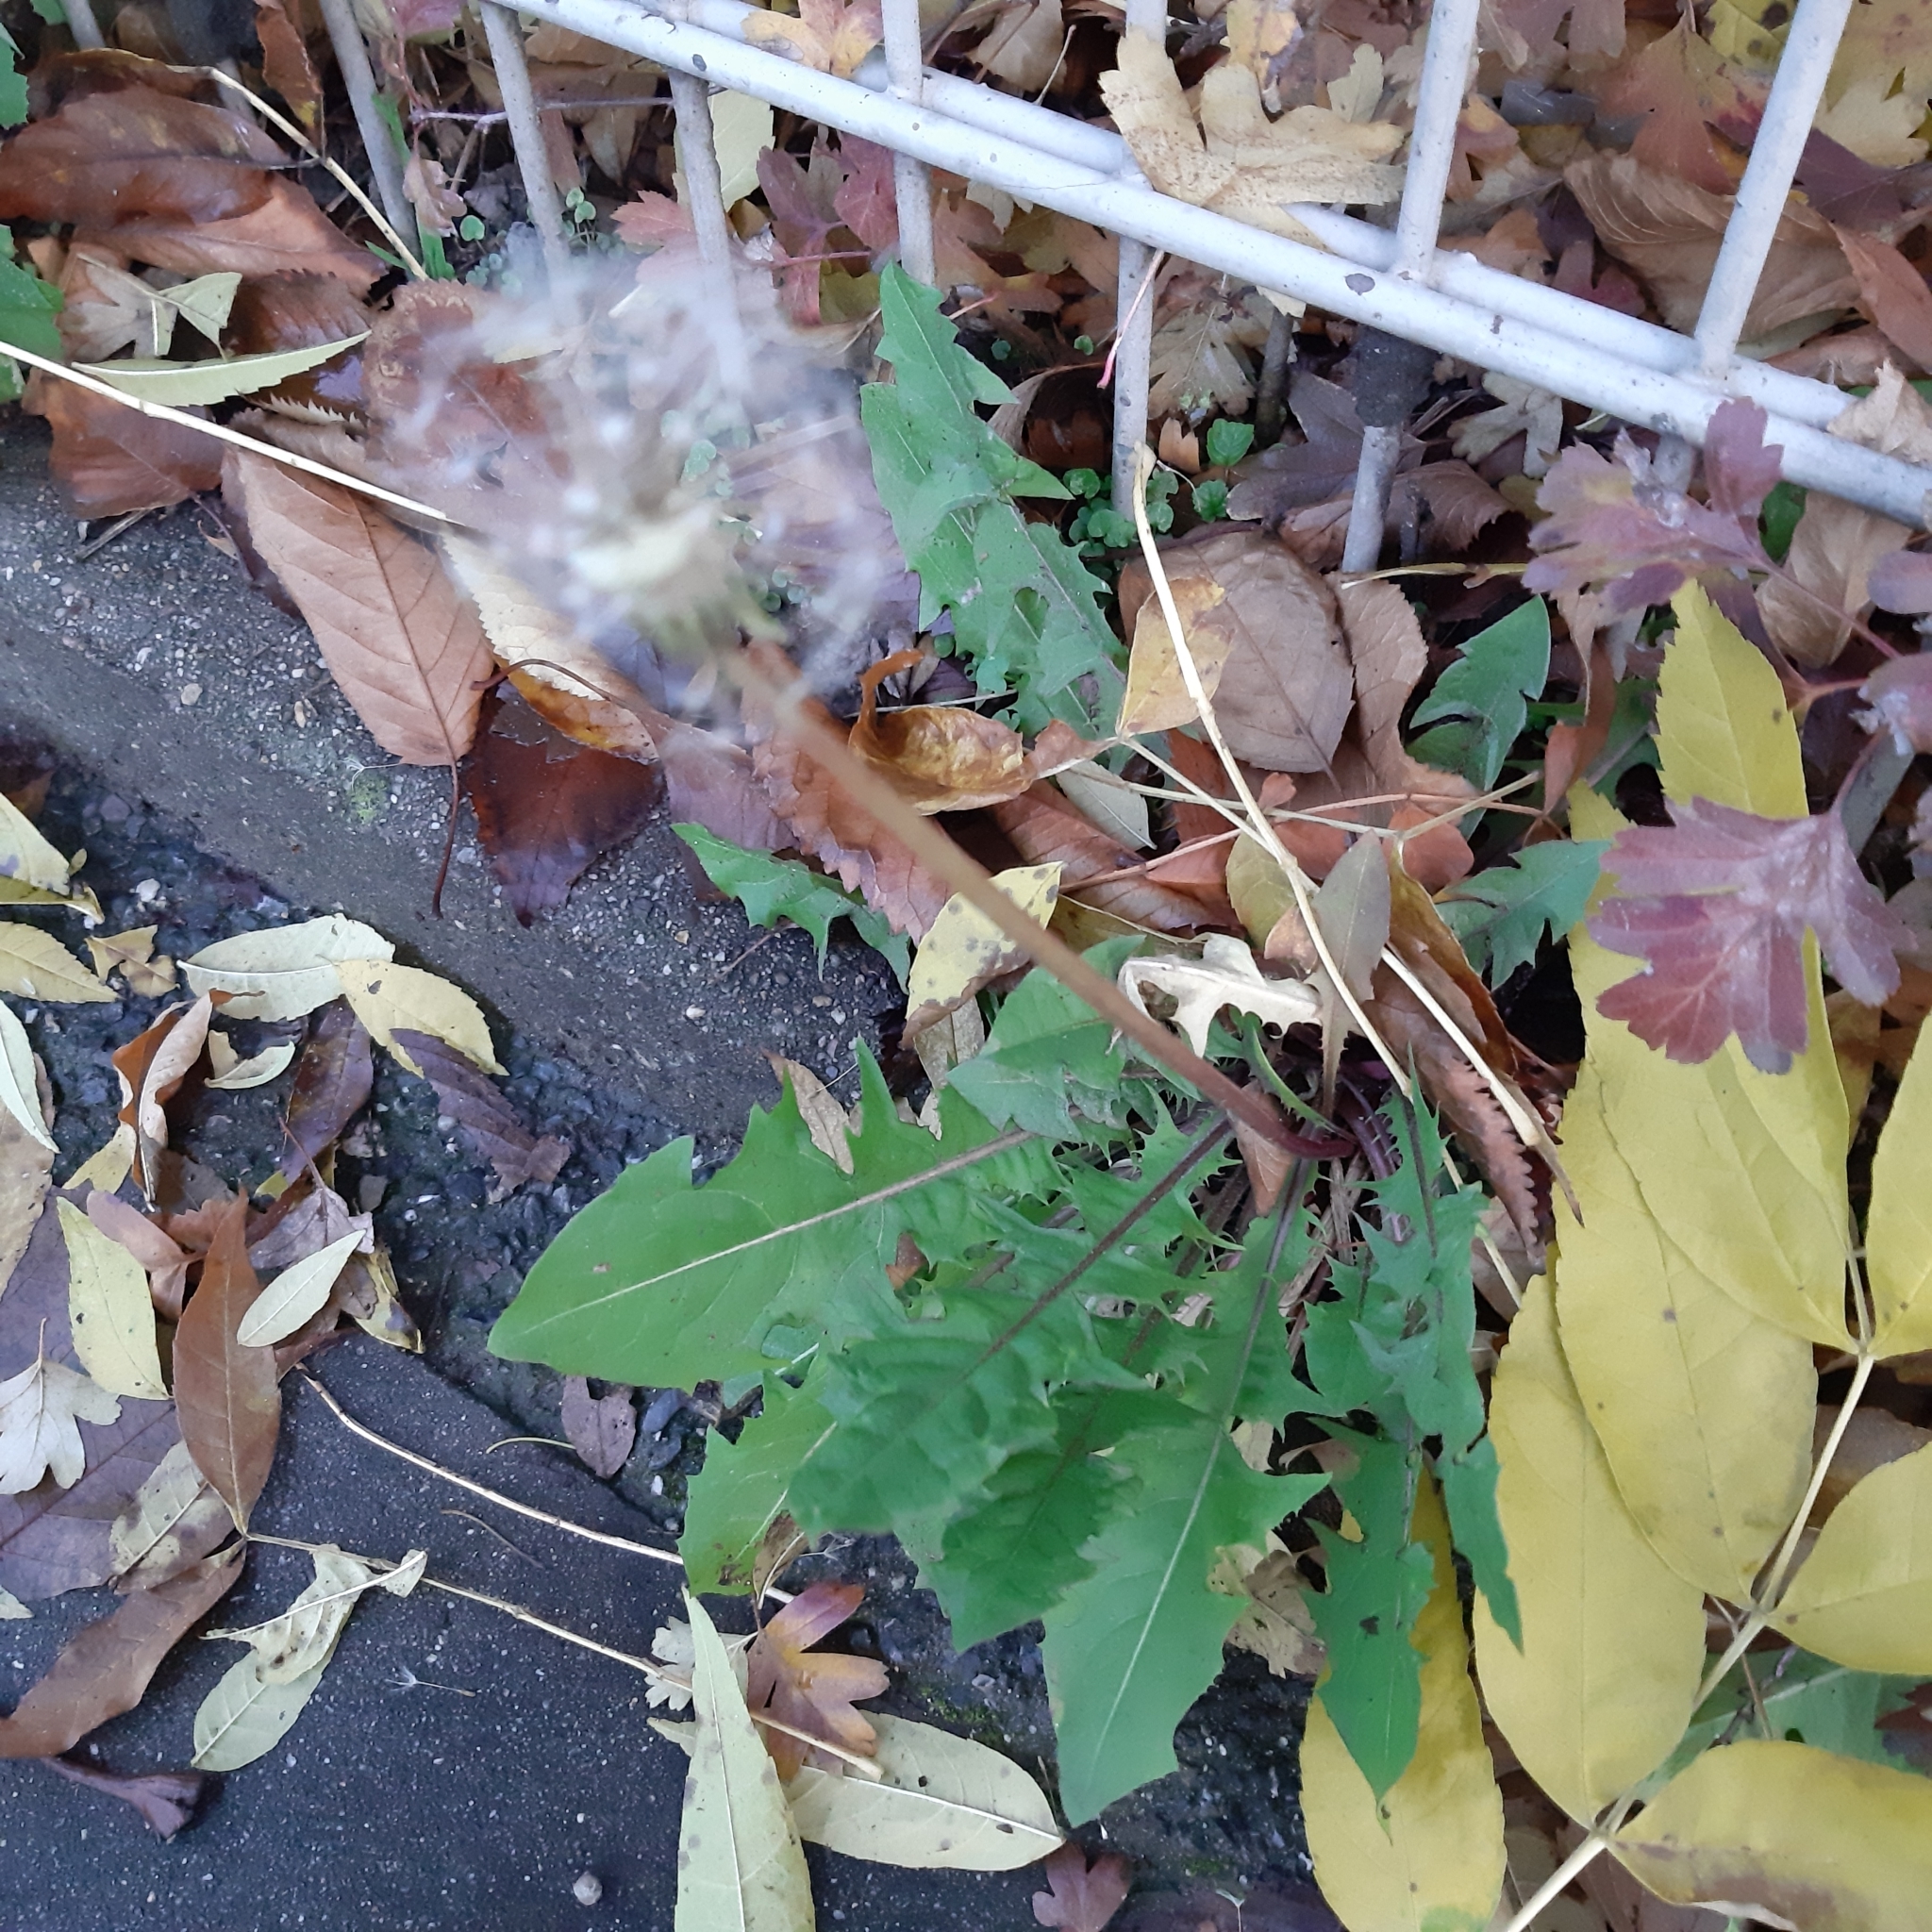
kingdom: Plantae
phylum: Tracheophyta
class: Magnoliopsida
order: Asterales
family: Asteraceae
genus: Taraxacum
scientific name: Taraxacum officinale
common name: Common dandelion
